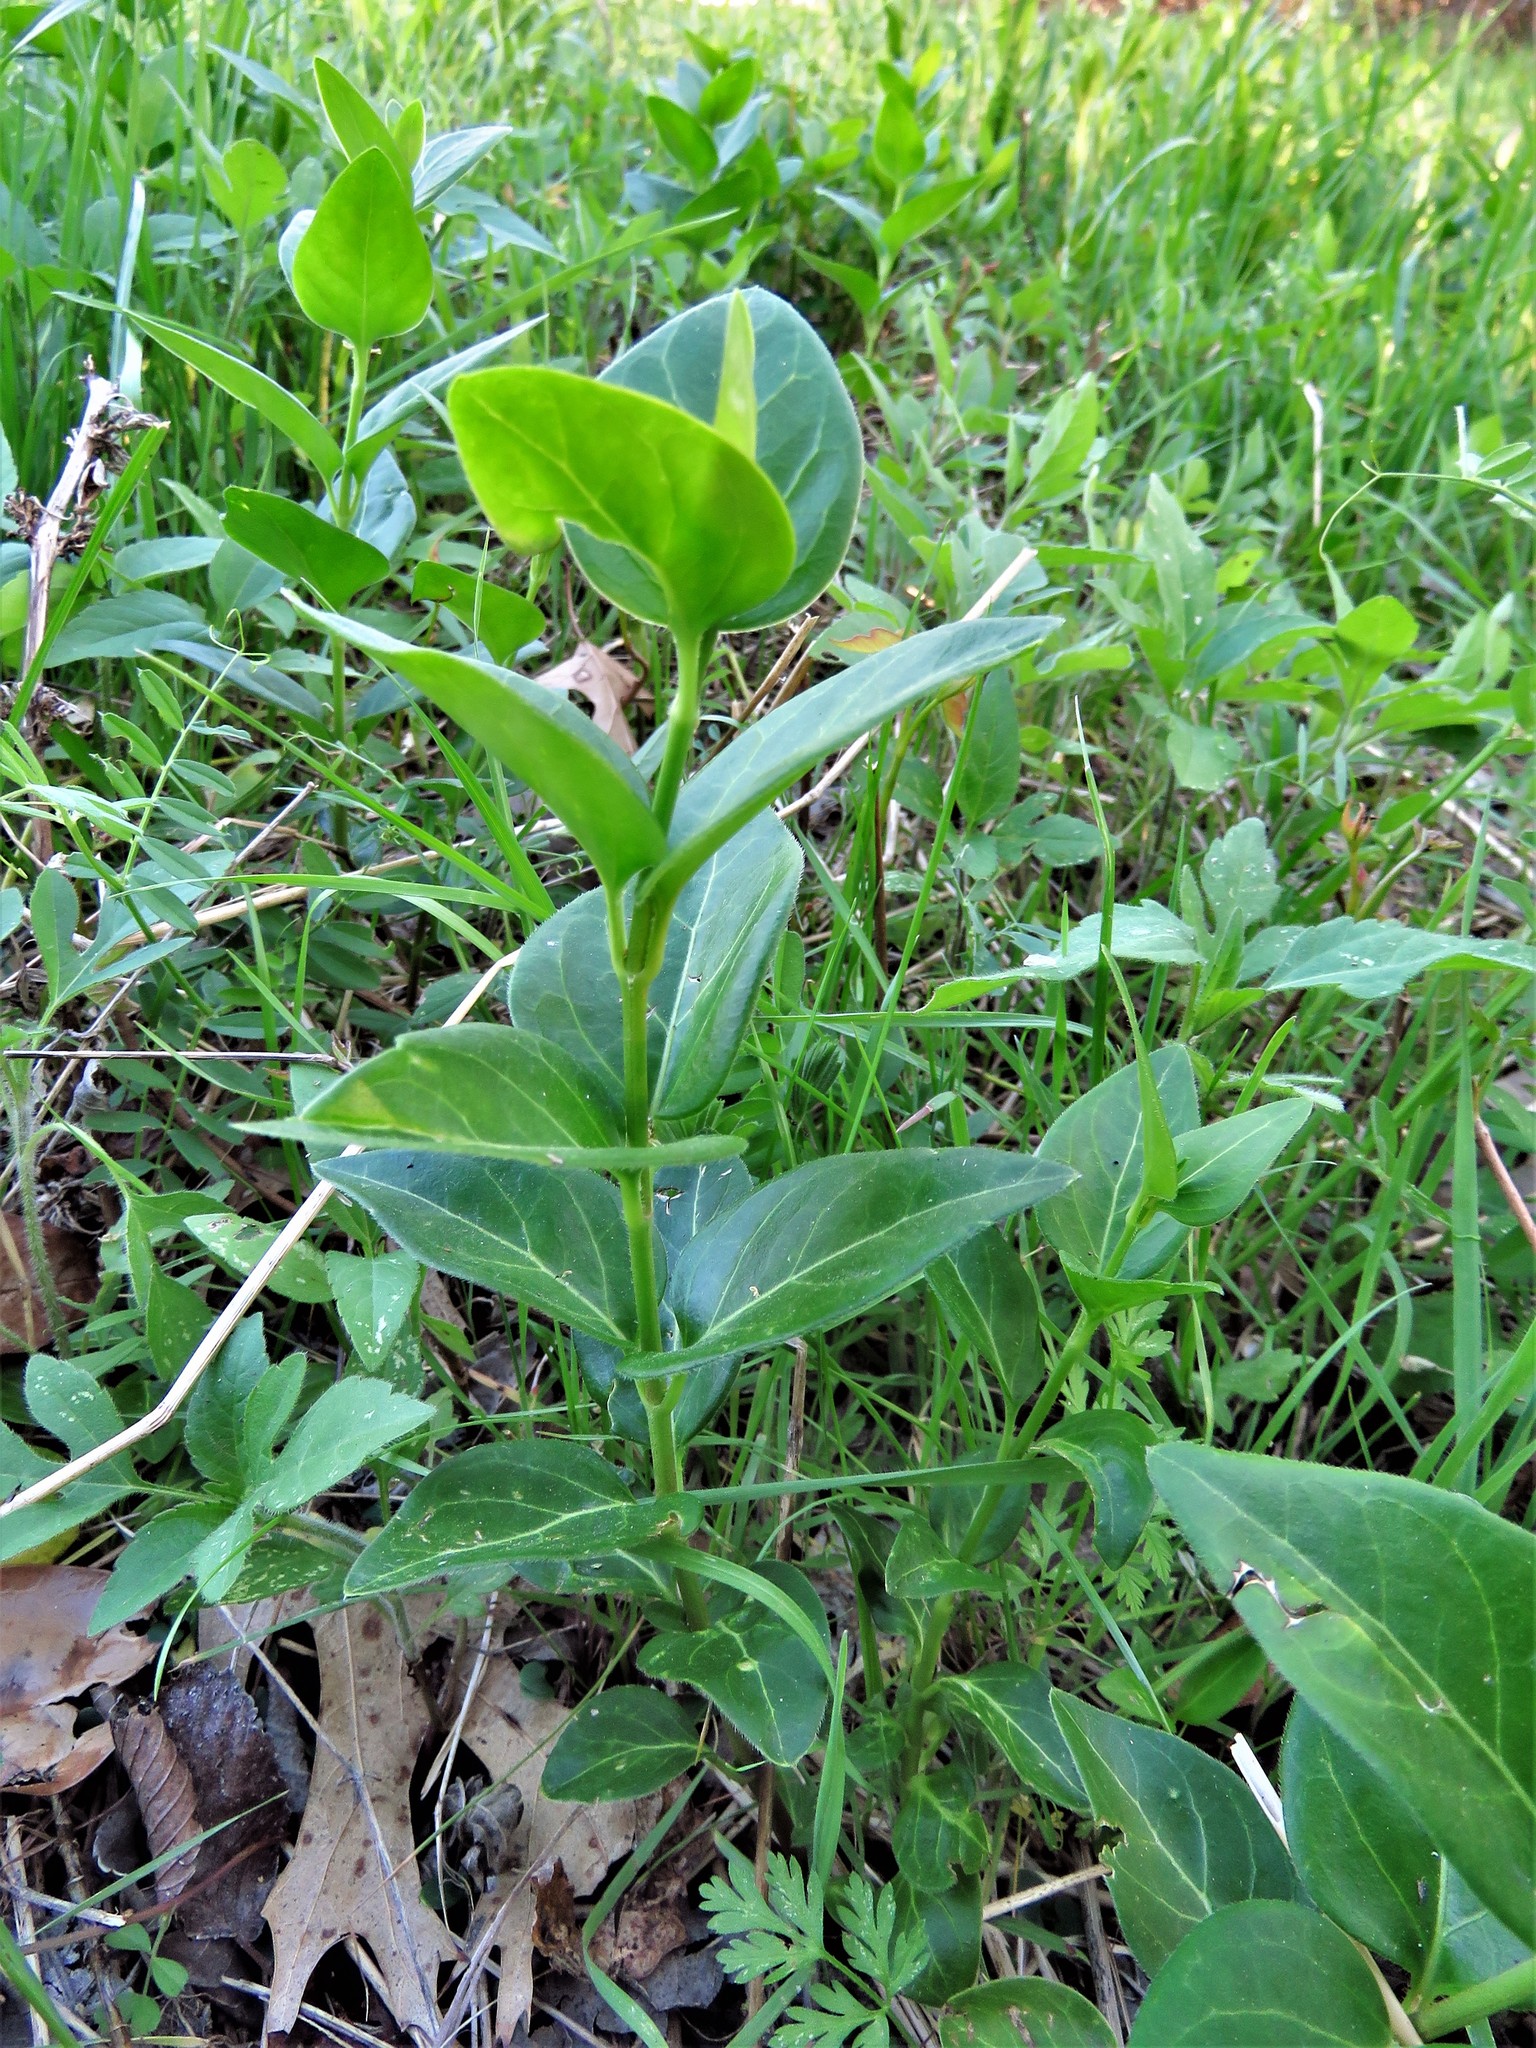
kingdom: Plantae
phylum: Tracheophyta
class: Magnoliopsida
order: Gentianales
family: Apocynaceae
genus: Vinca
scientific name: Vinca major
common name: Greater periwinkle
